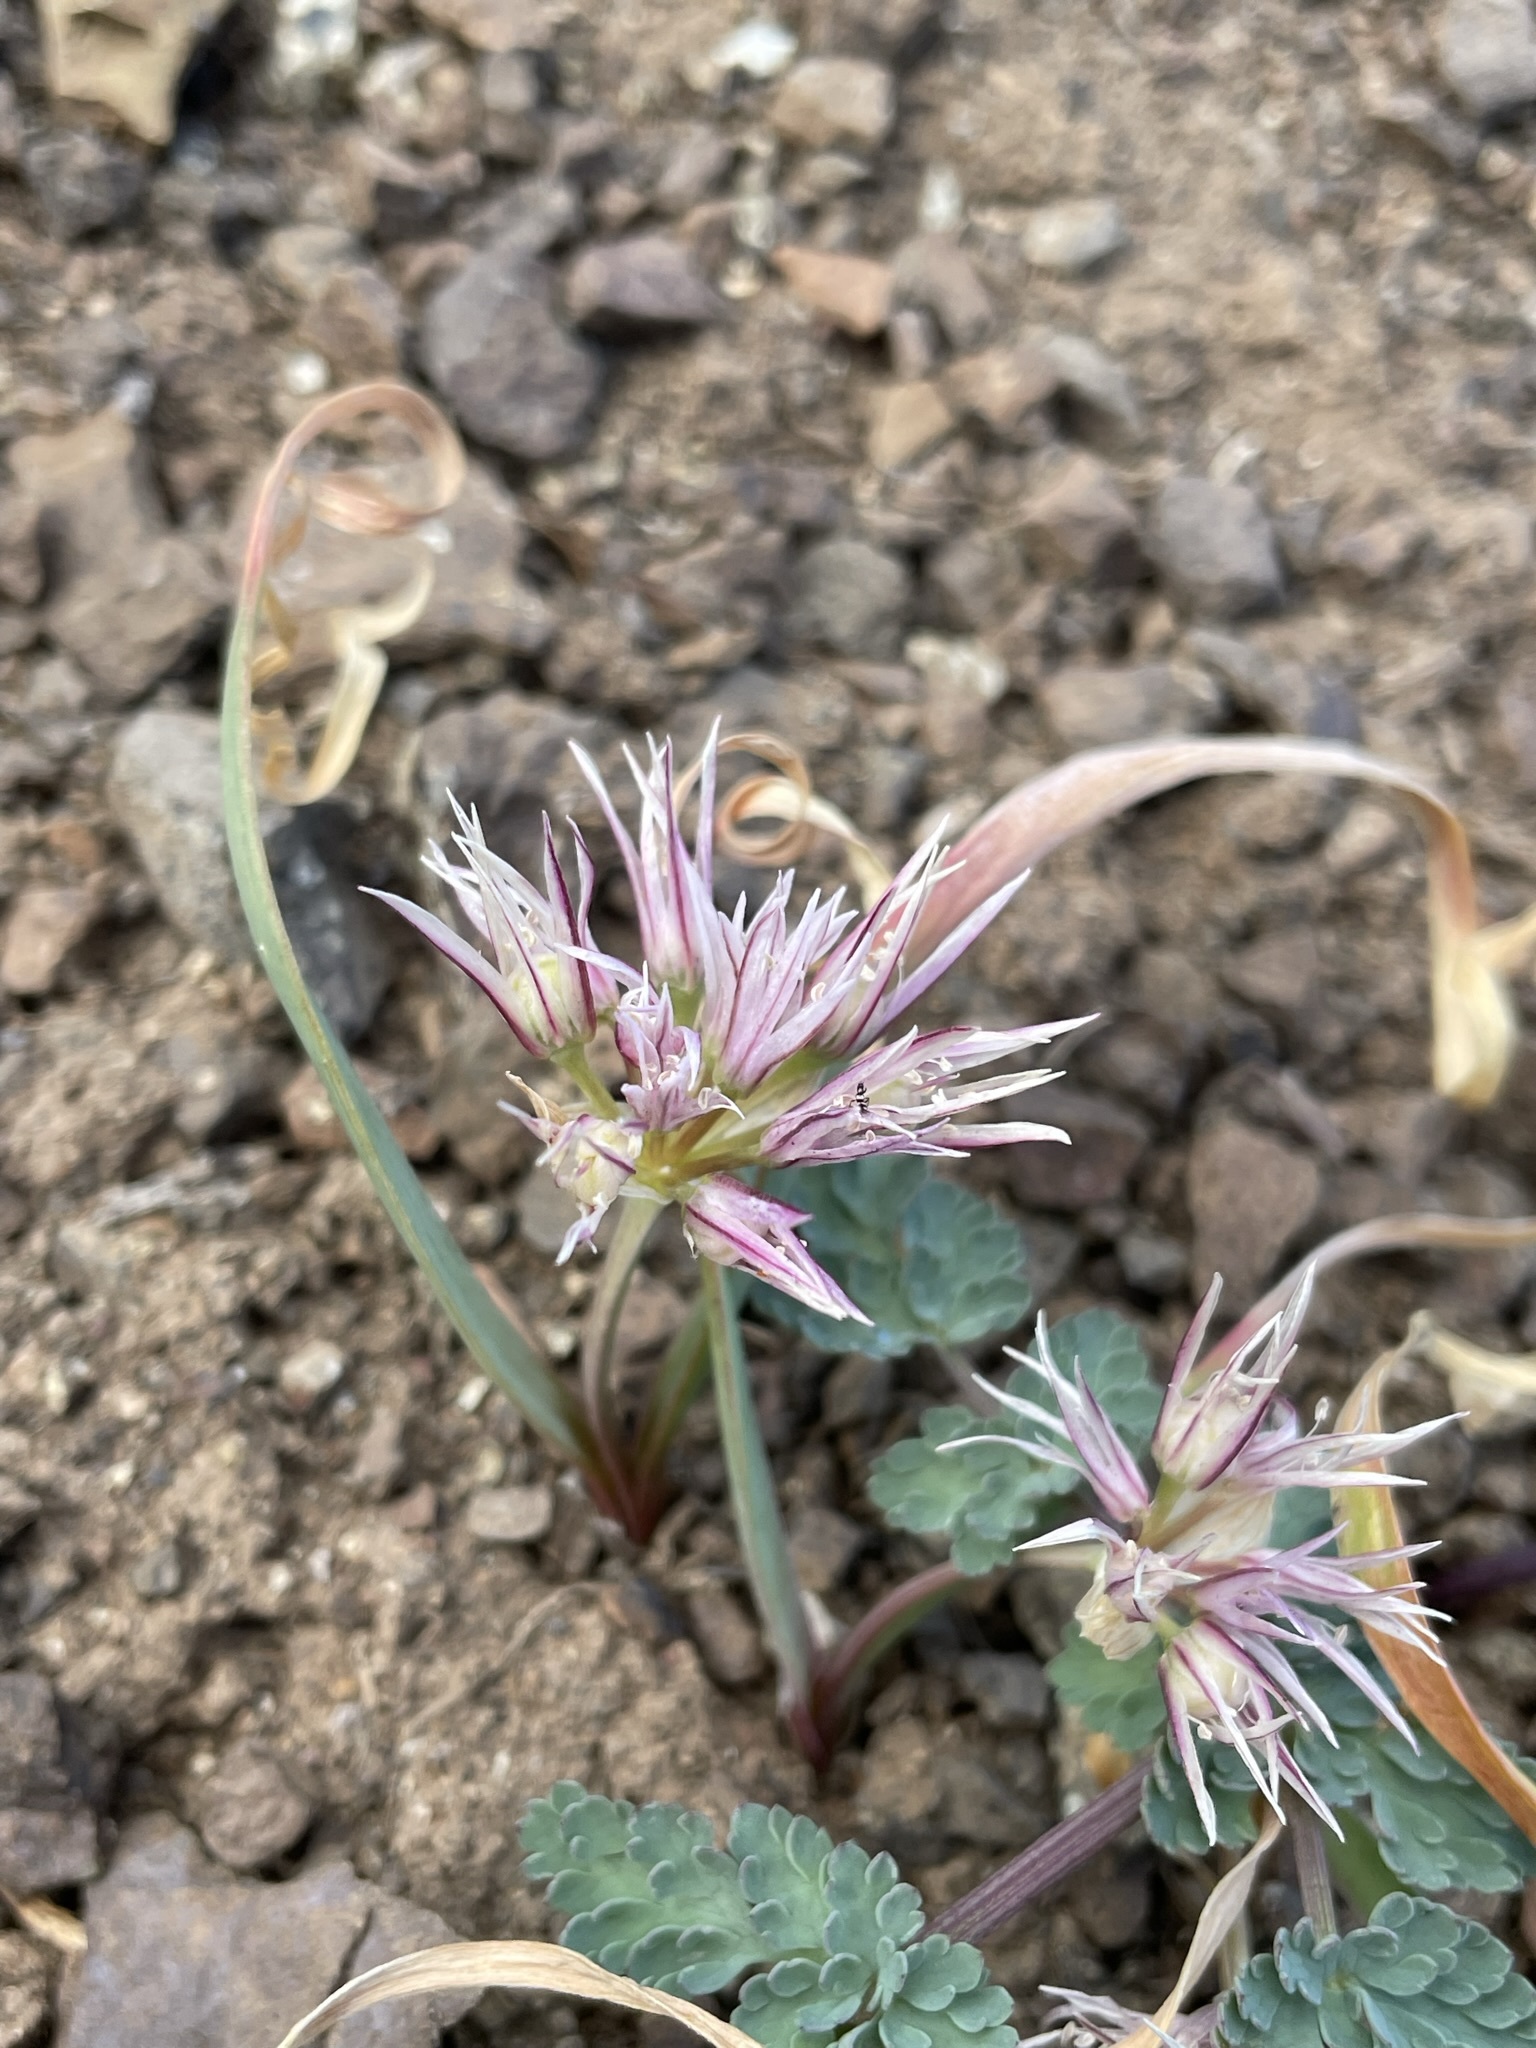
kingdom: Plantae
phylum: Tracheophyta
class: Liliopsida
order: Asparagales
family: Amaryllidaceae
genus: Allium
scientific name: Allium crenulatum
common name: Olympic onion
